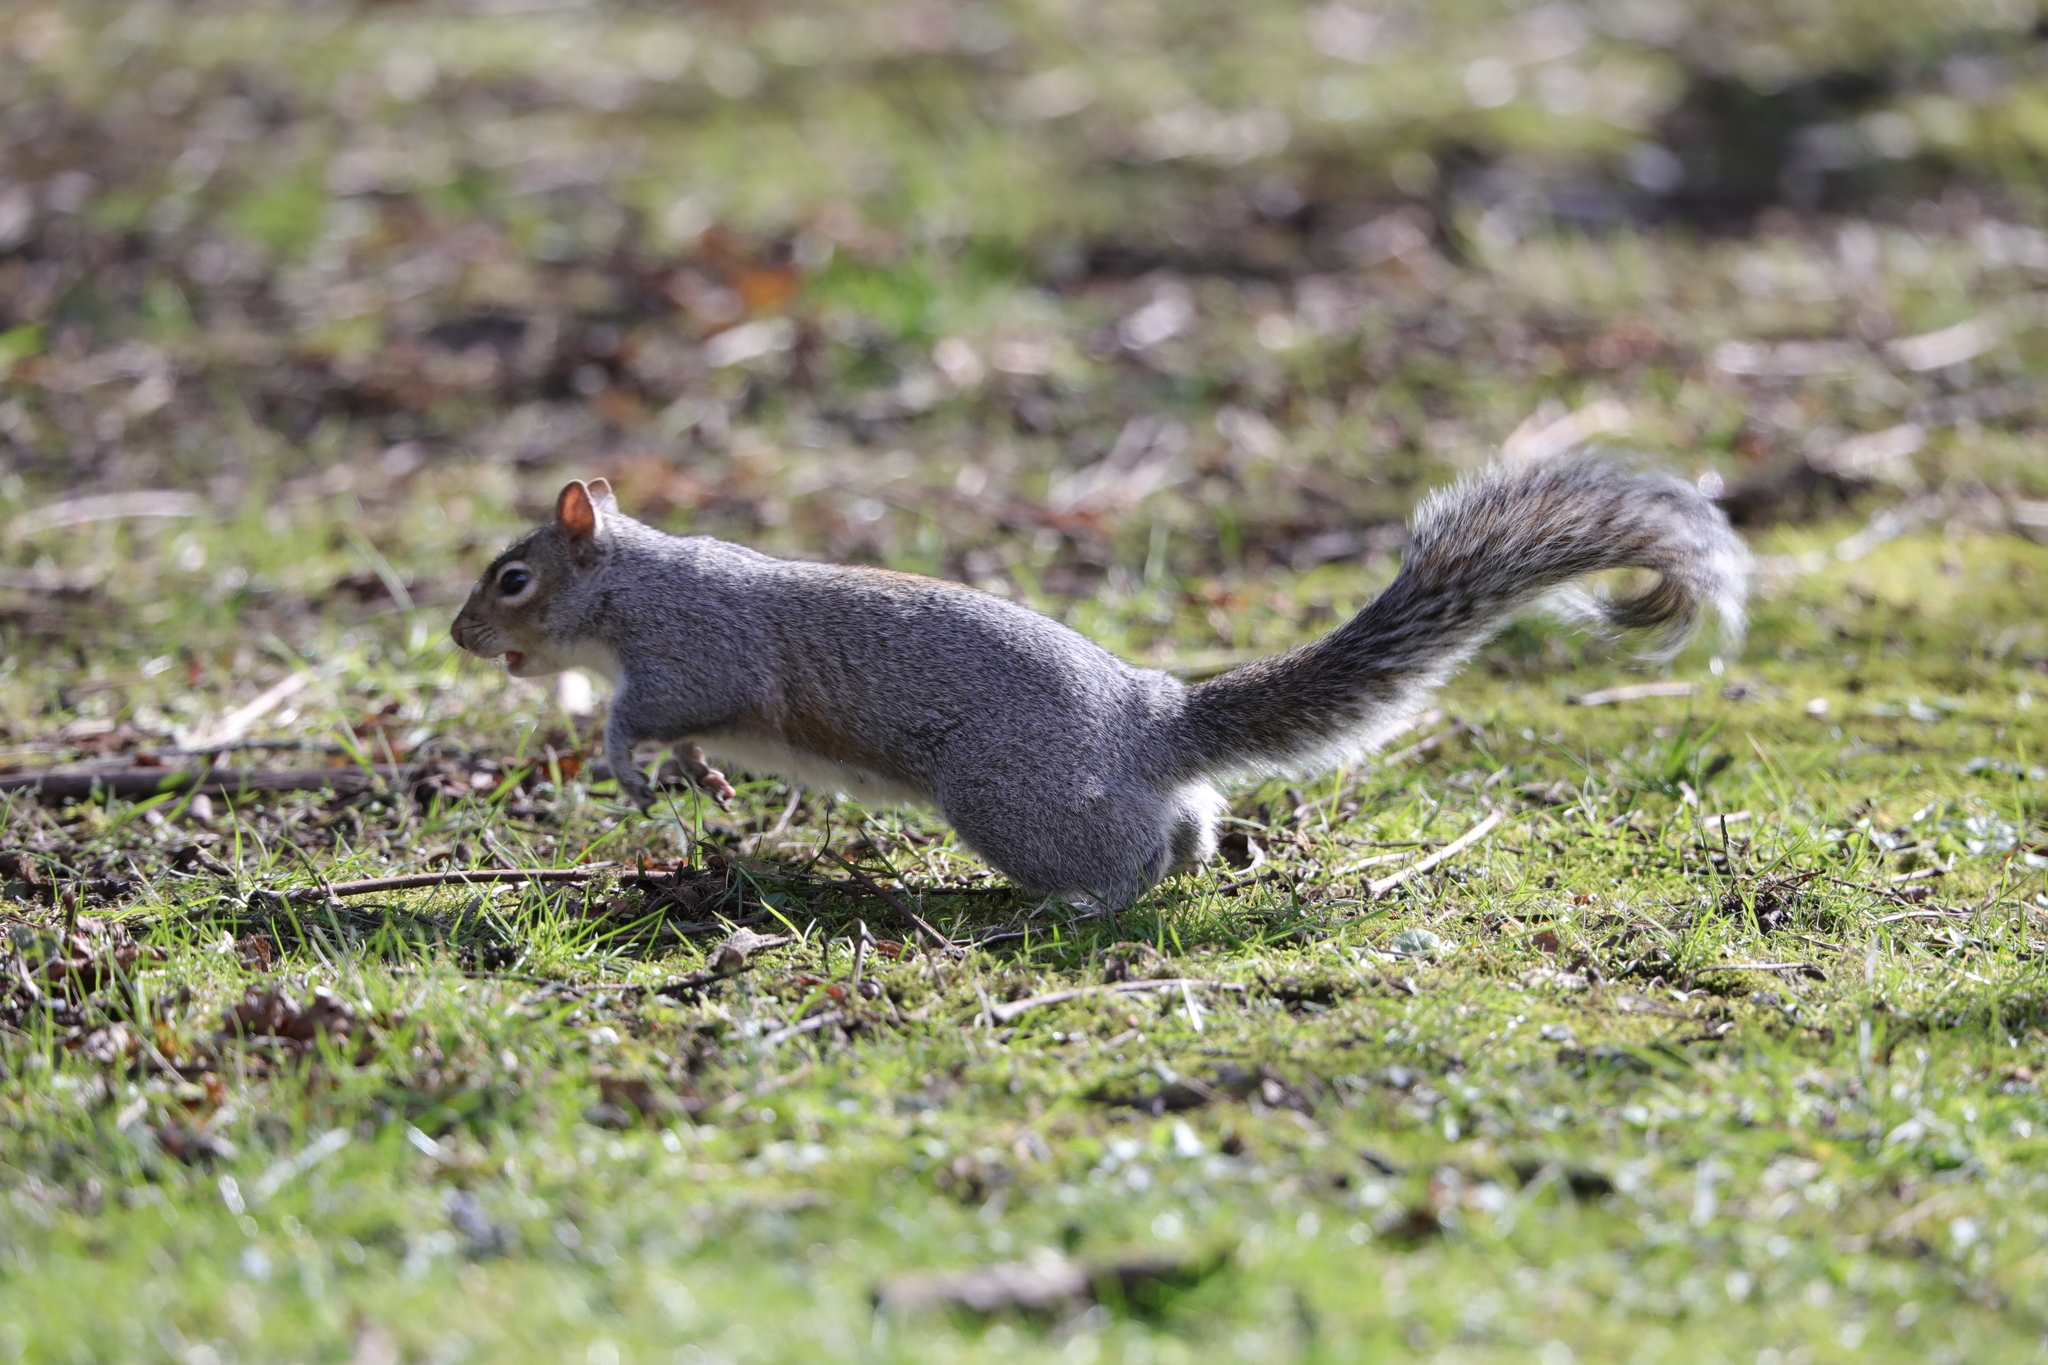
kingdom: Animalia
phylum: Chordata
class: Mammalia
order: Rodentia
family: Sciuridae
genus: Sciurus
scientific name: Sciurus carolinensis
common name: Eastern gray squirrel
